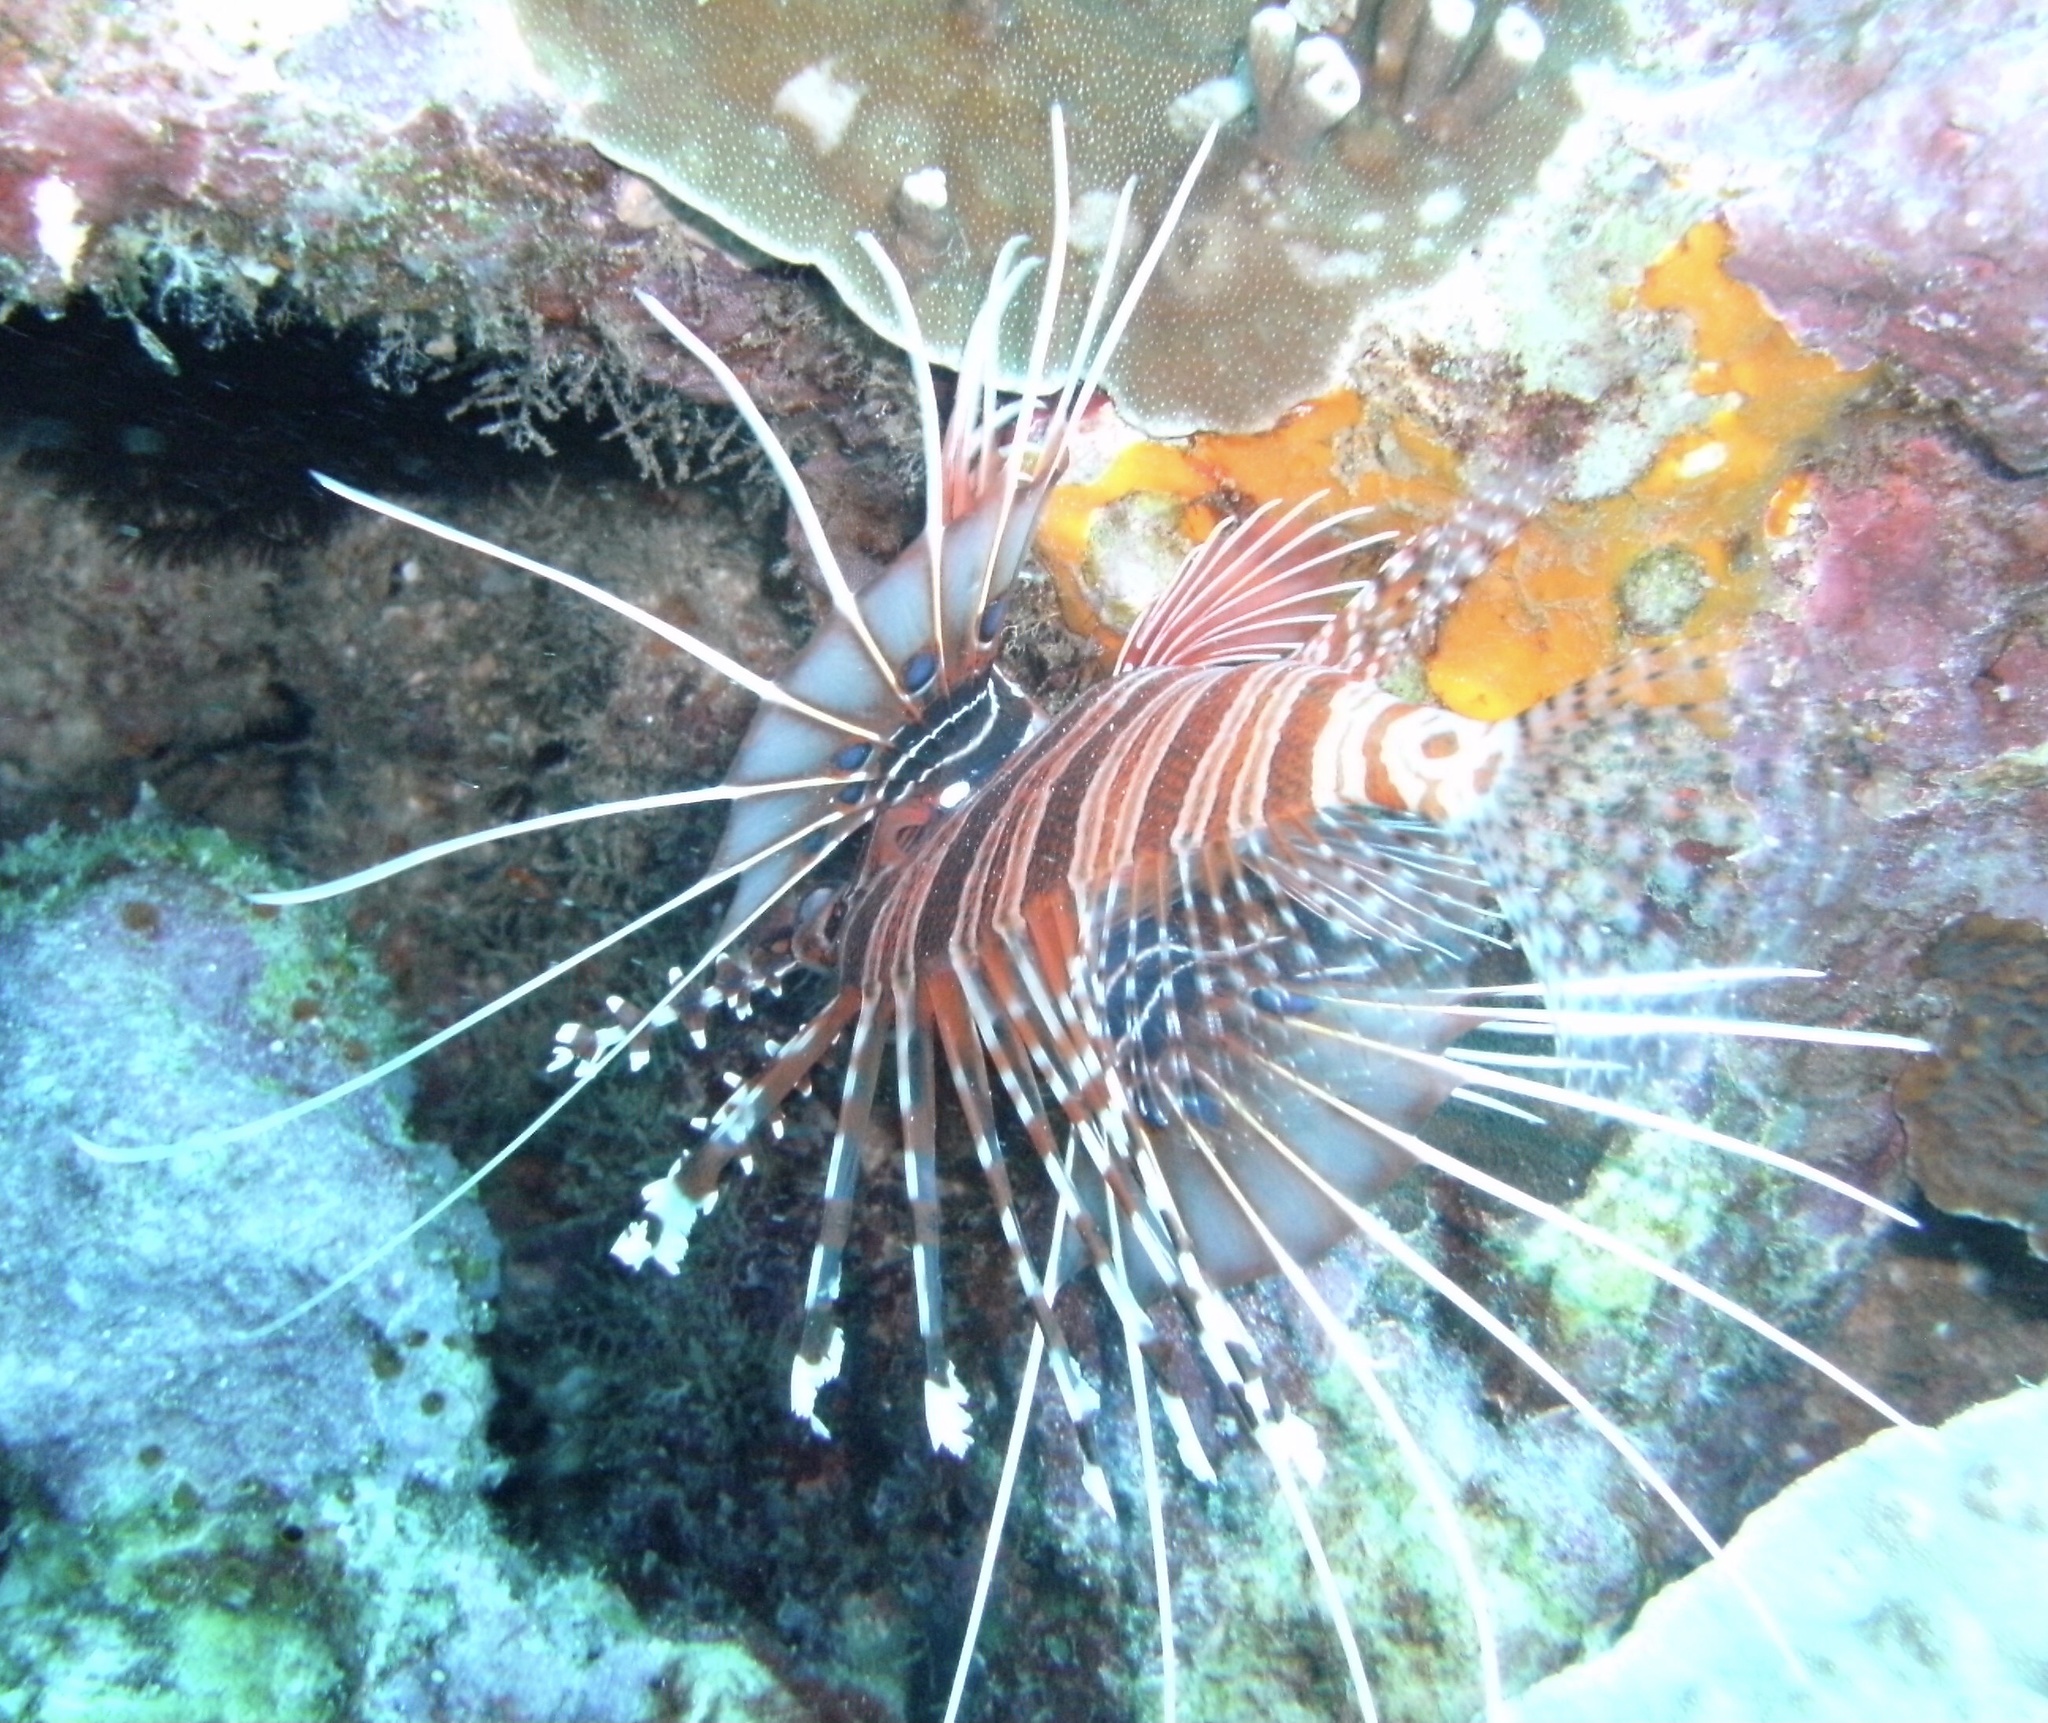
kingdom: Animalia
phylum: Chordata
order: Scorpaeniformes
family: Scorpaenidae
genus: Pterois
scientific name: Pterois antennata
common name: Spotfin lionfish
